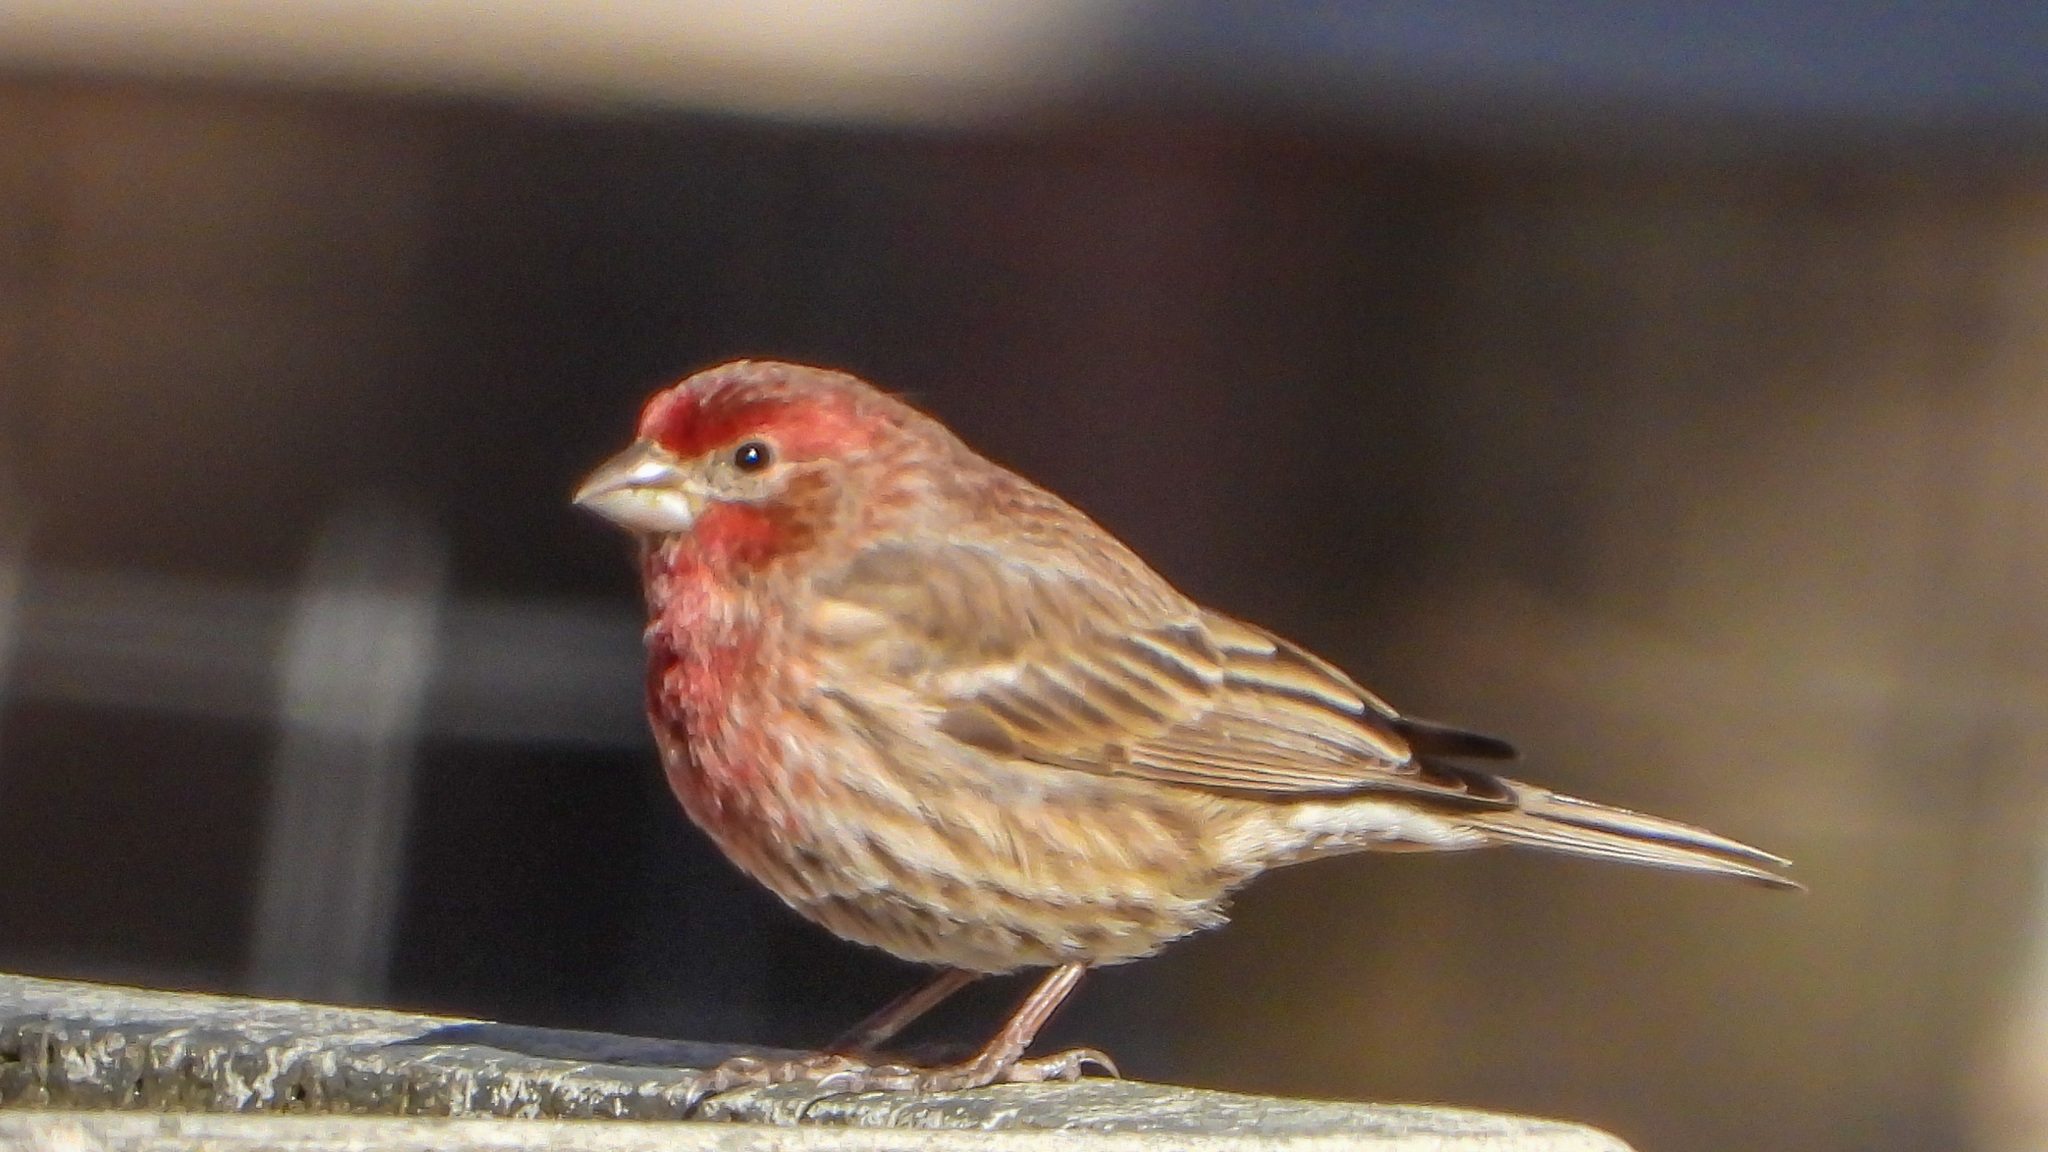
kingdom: Animalia
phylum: Chordata
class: Aves
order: Passeriformes
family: Fringillidae
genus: Haemorhous
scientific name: Haemorhous mexicanus
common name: House finch
